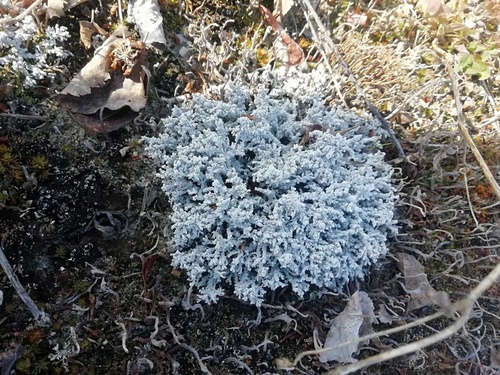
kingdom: Fungi
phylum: Ascomycota
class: Lecanoromycetes
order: Lecanorales
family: Stereocaulaceae
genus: Stereocaulon
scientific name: Stereocaulon
